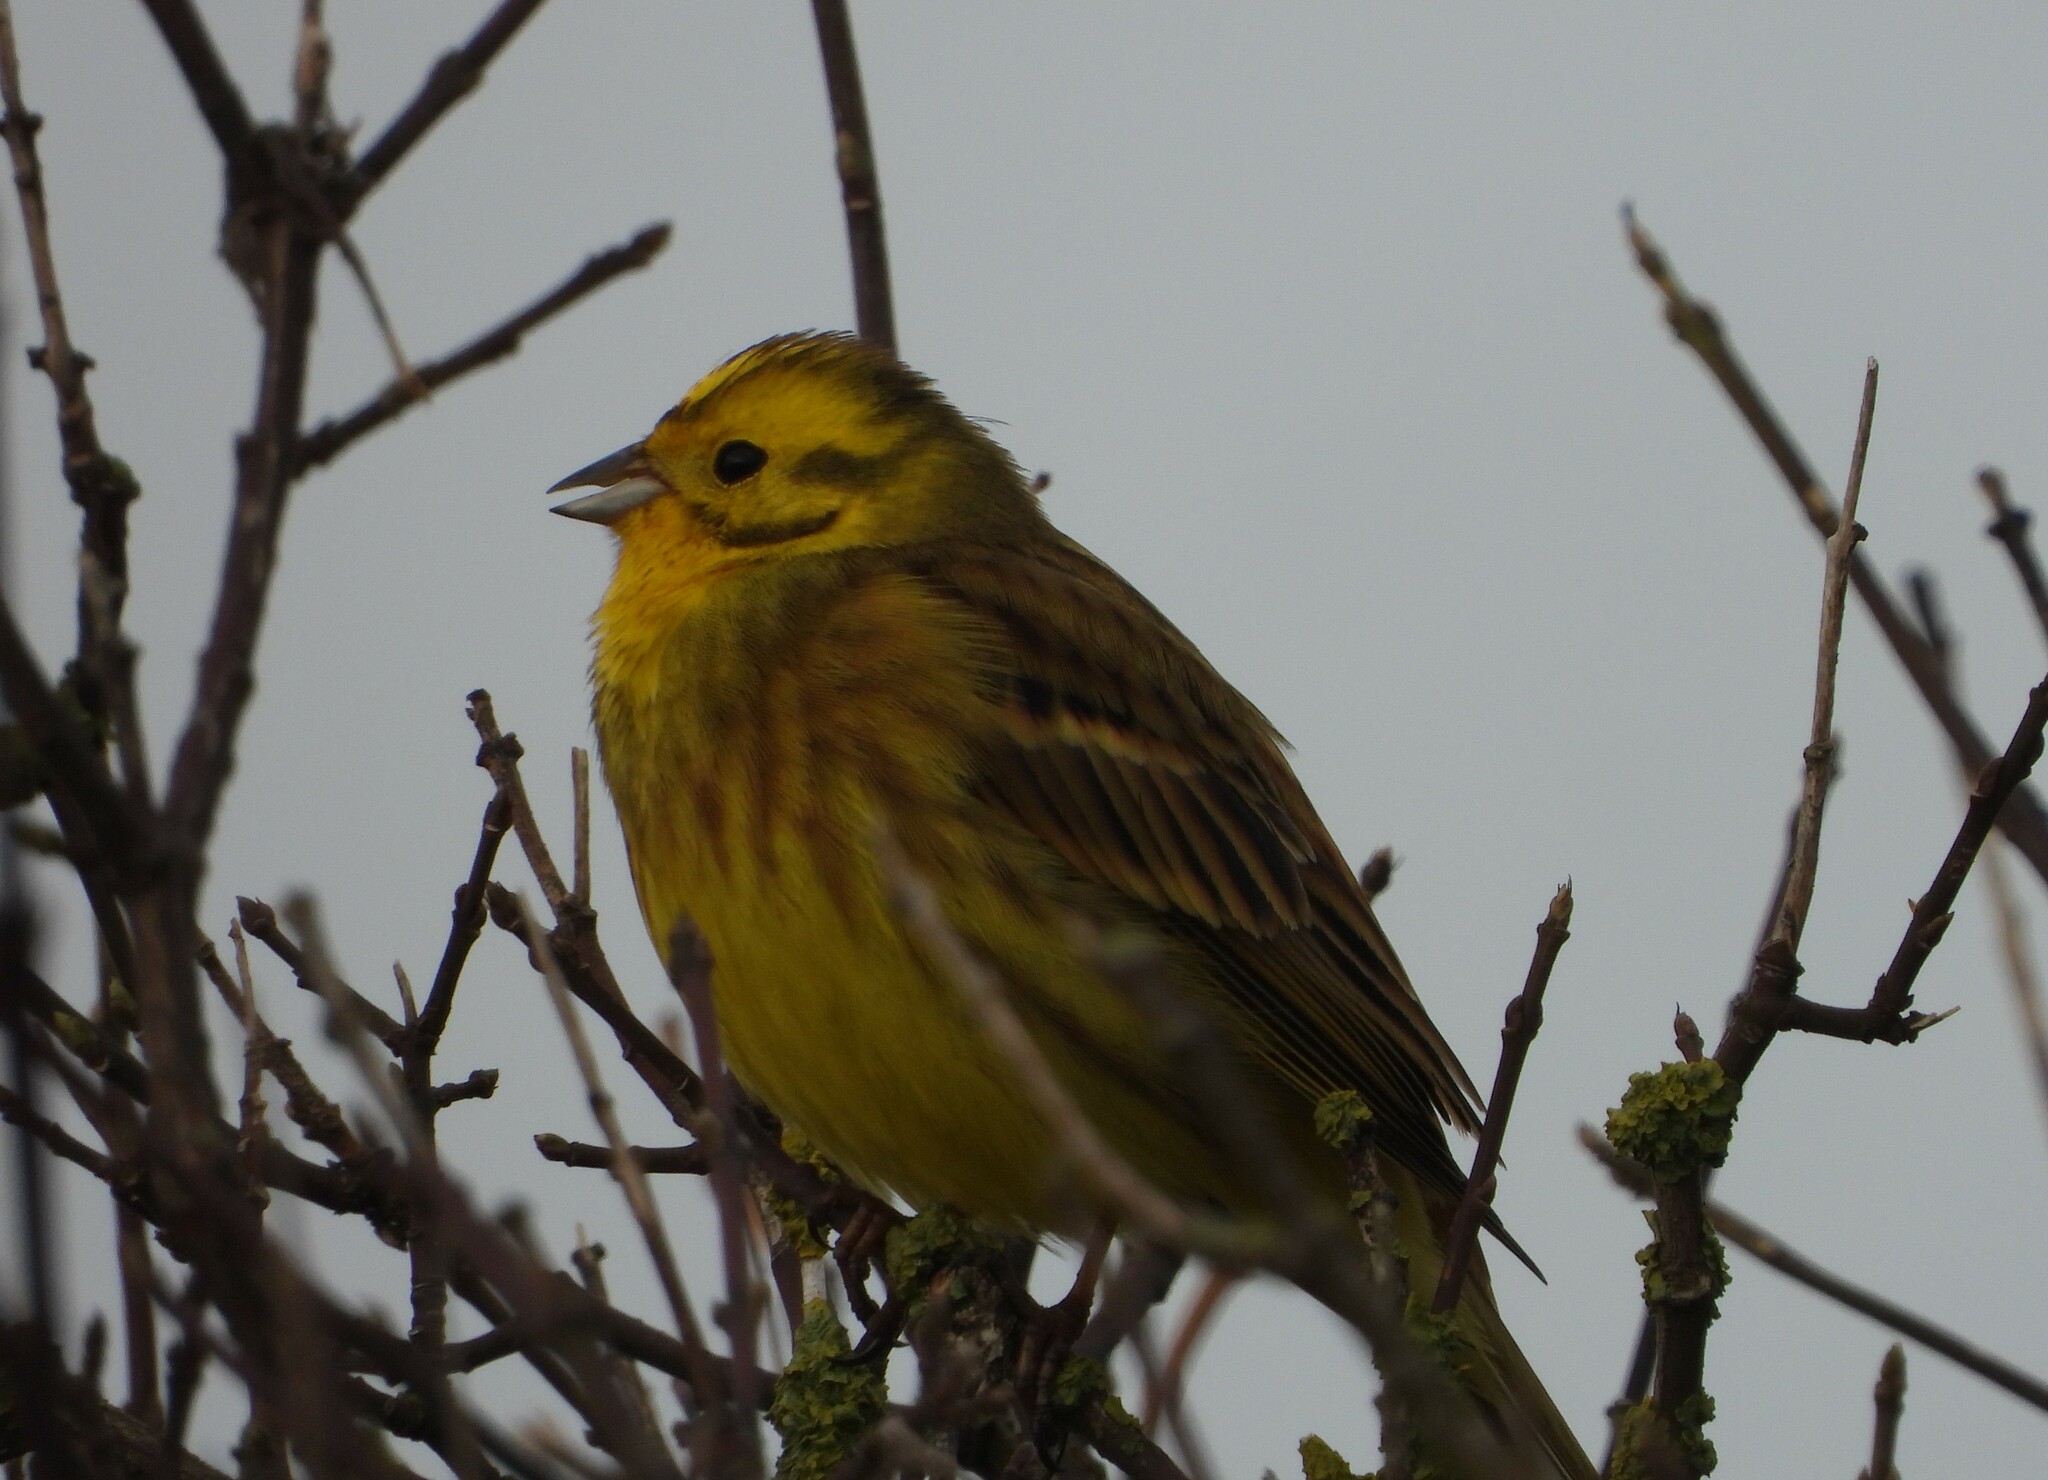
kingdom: Animalia
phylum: Chordata
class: Aves
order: Passeriformes
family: Emberizidae
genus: Emberiza
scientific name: Emberiza citrinella
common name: Yellowhammer
